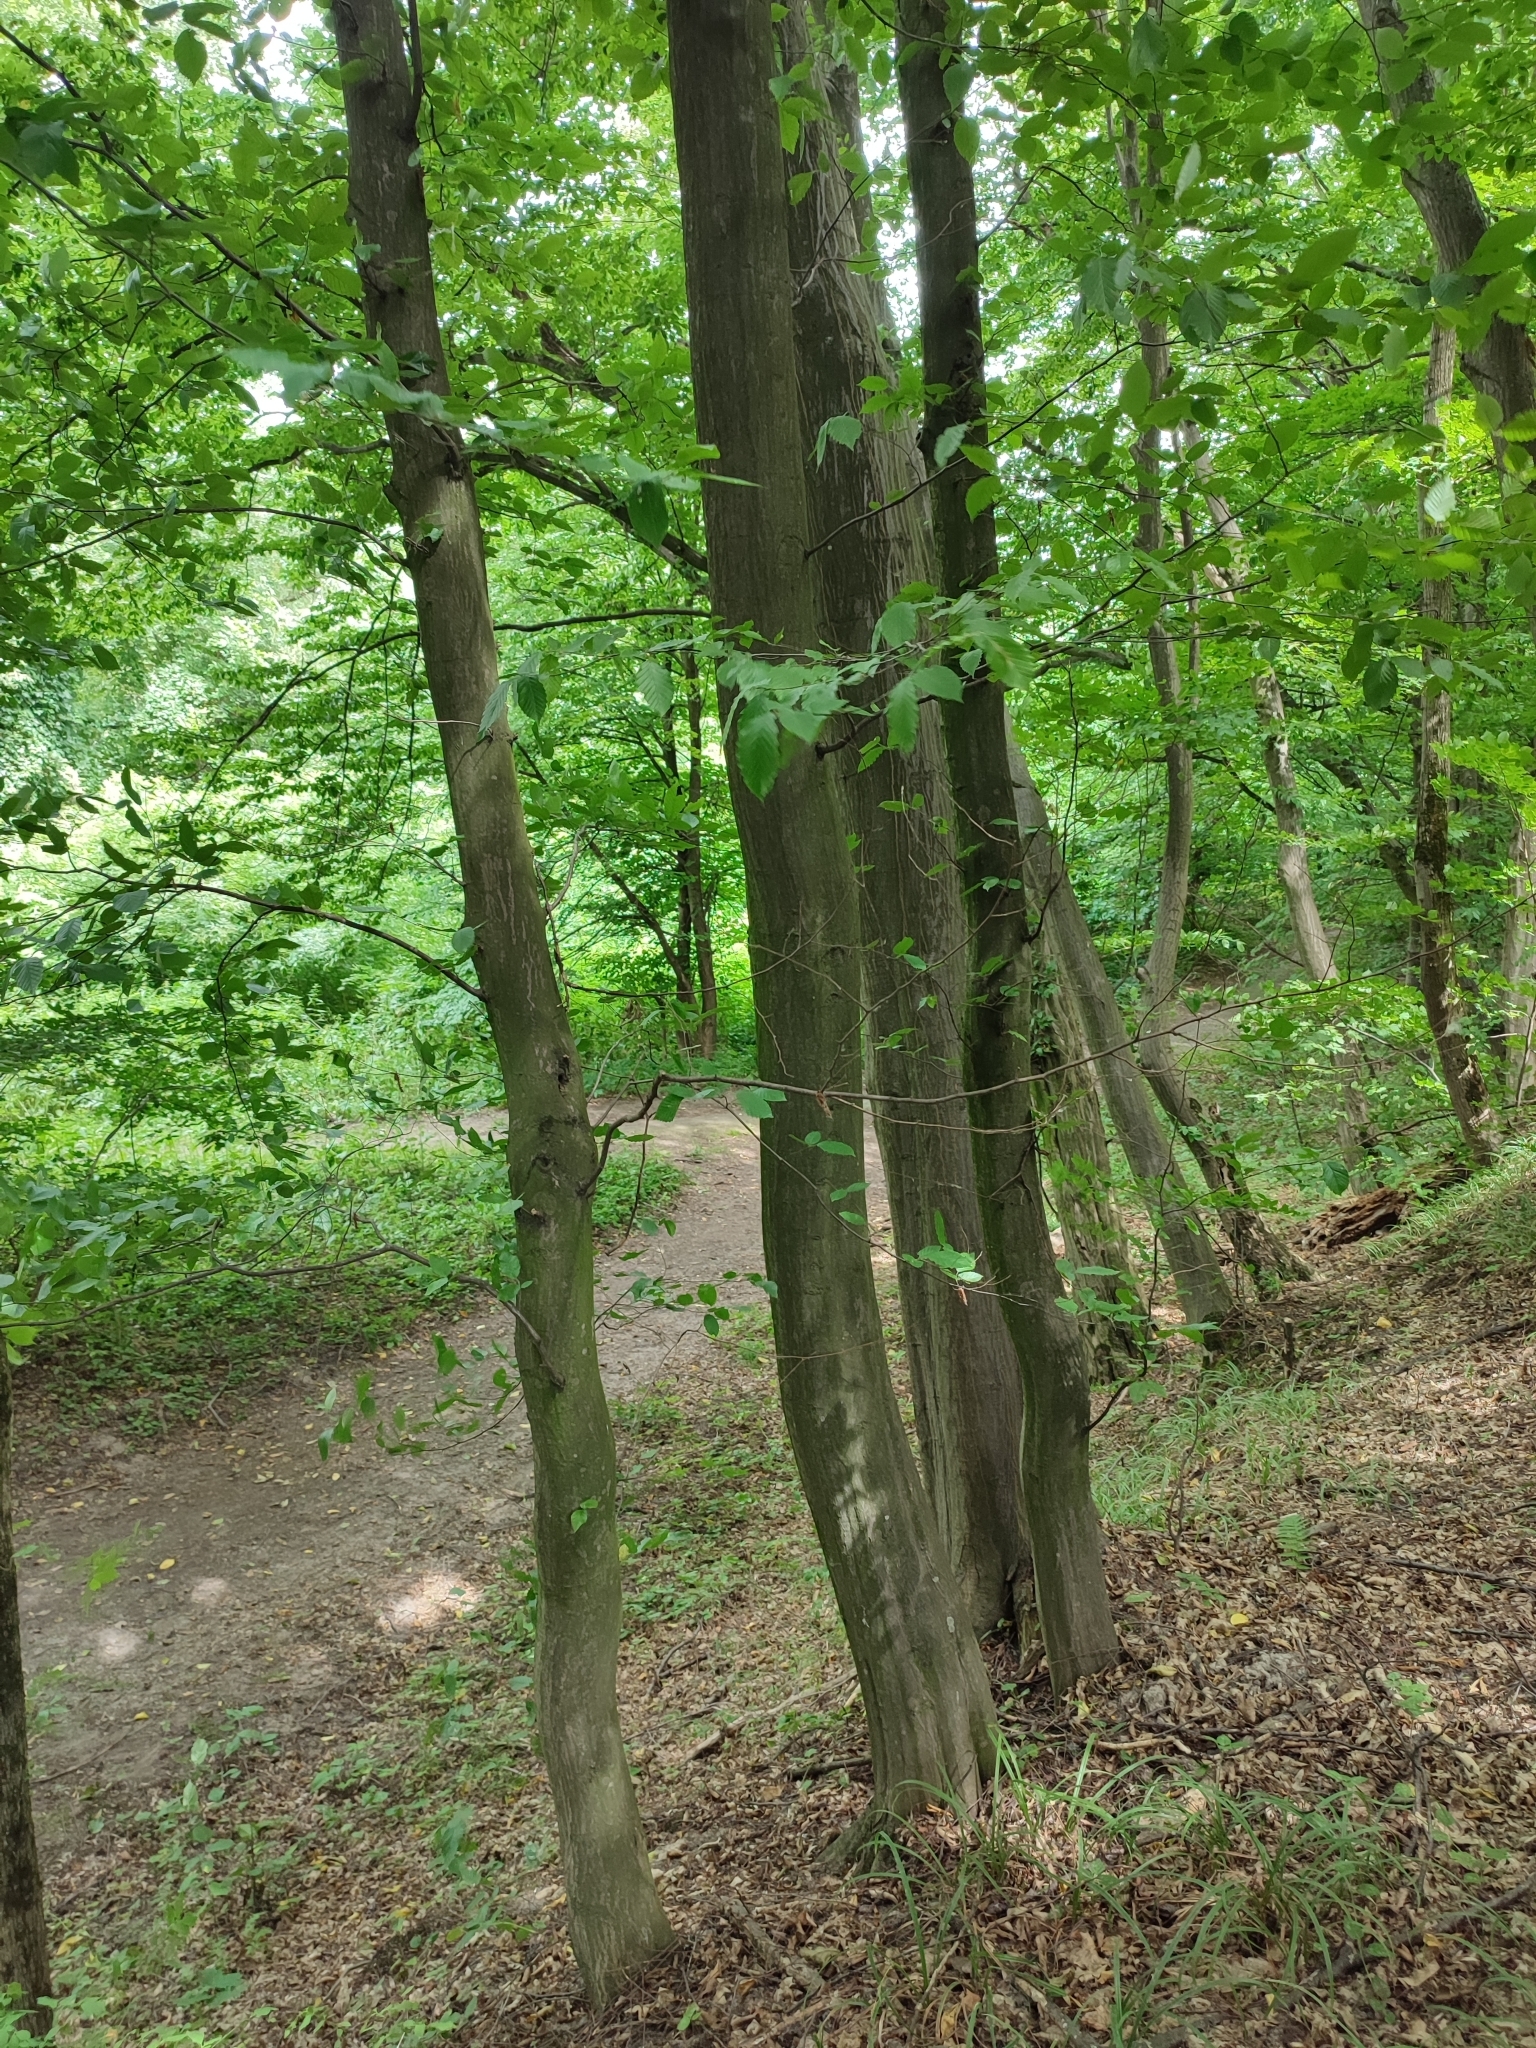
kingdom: Plantae
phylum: Tracheophyta
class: Magnoliopsida
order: Fagales
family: Betulaceae
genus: Carpinus
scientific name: Carpinus betulus
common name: Hornbeam
